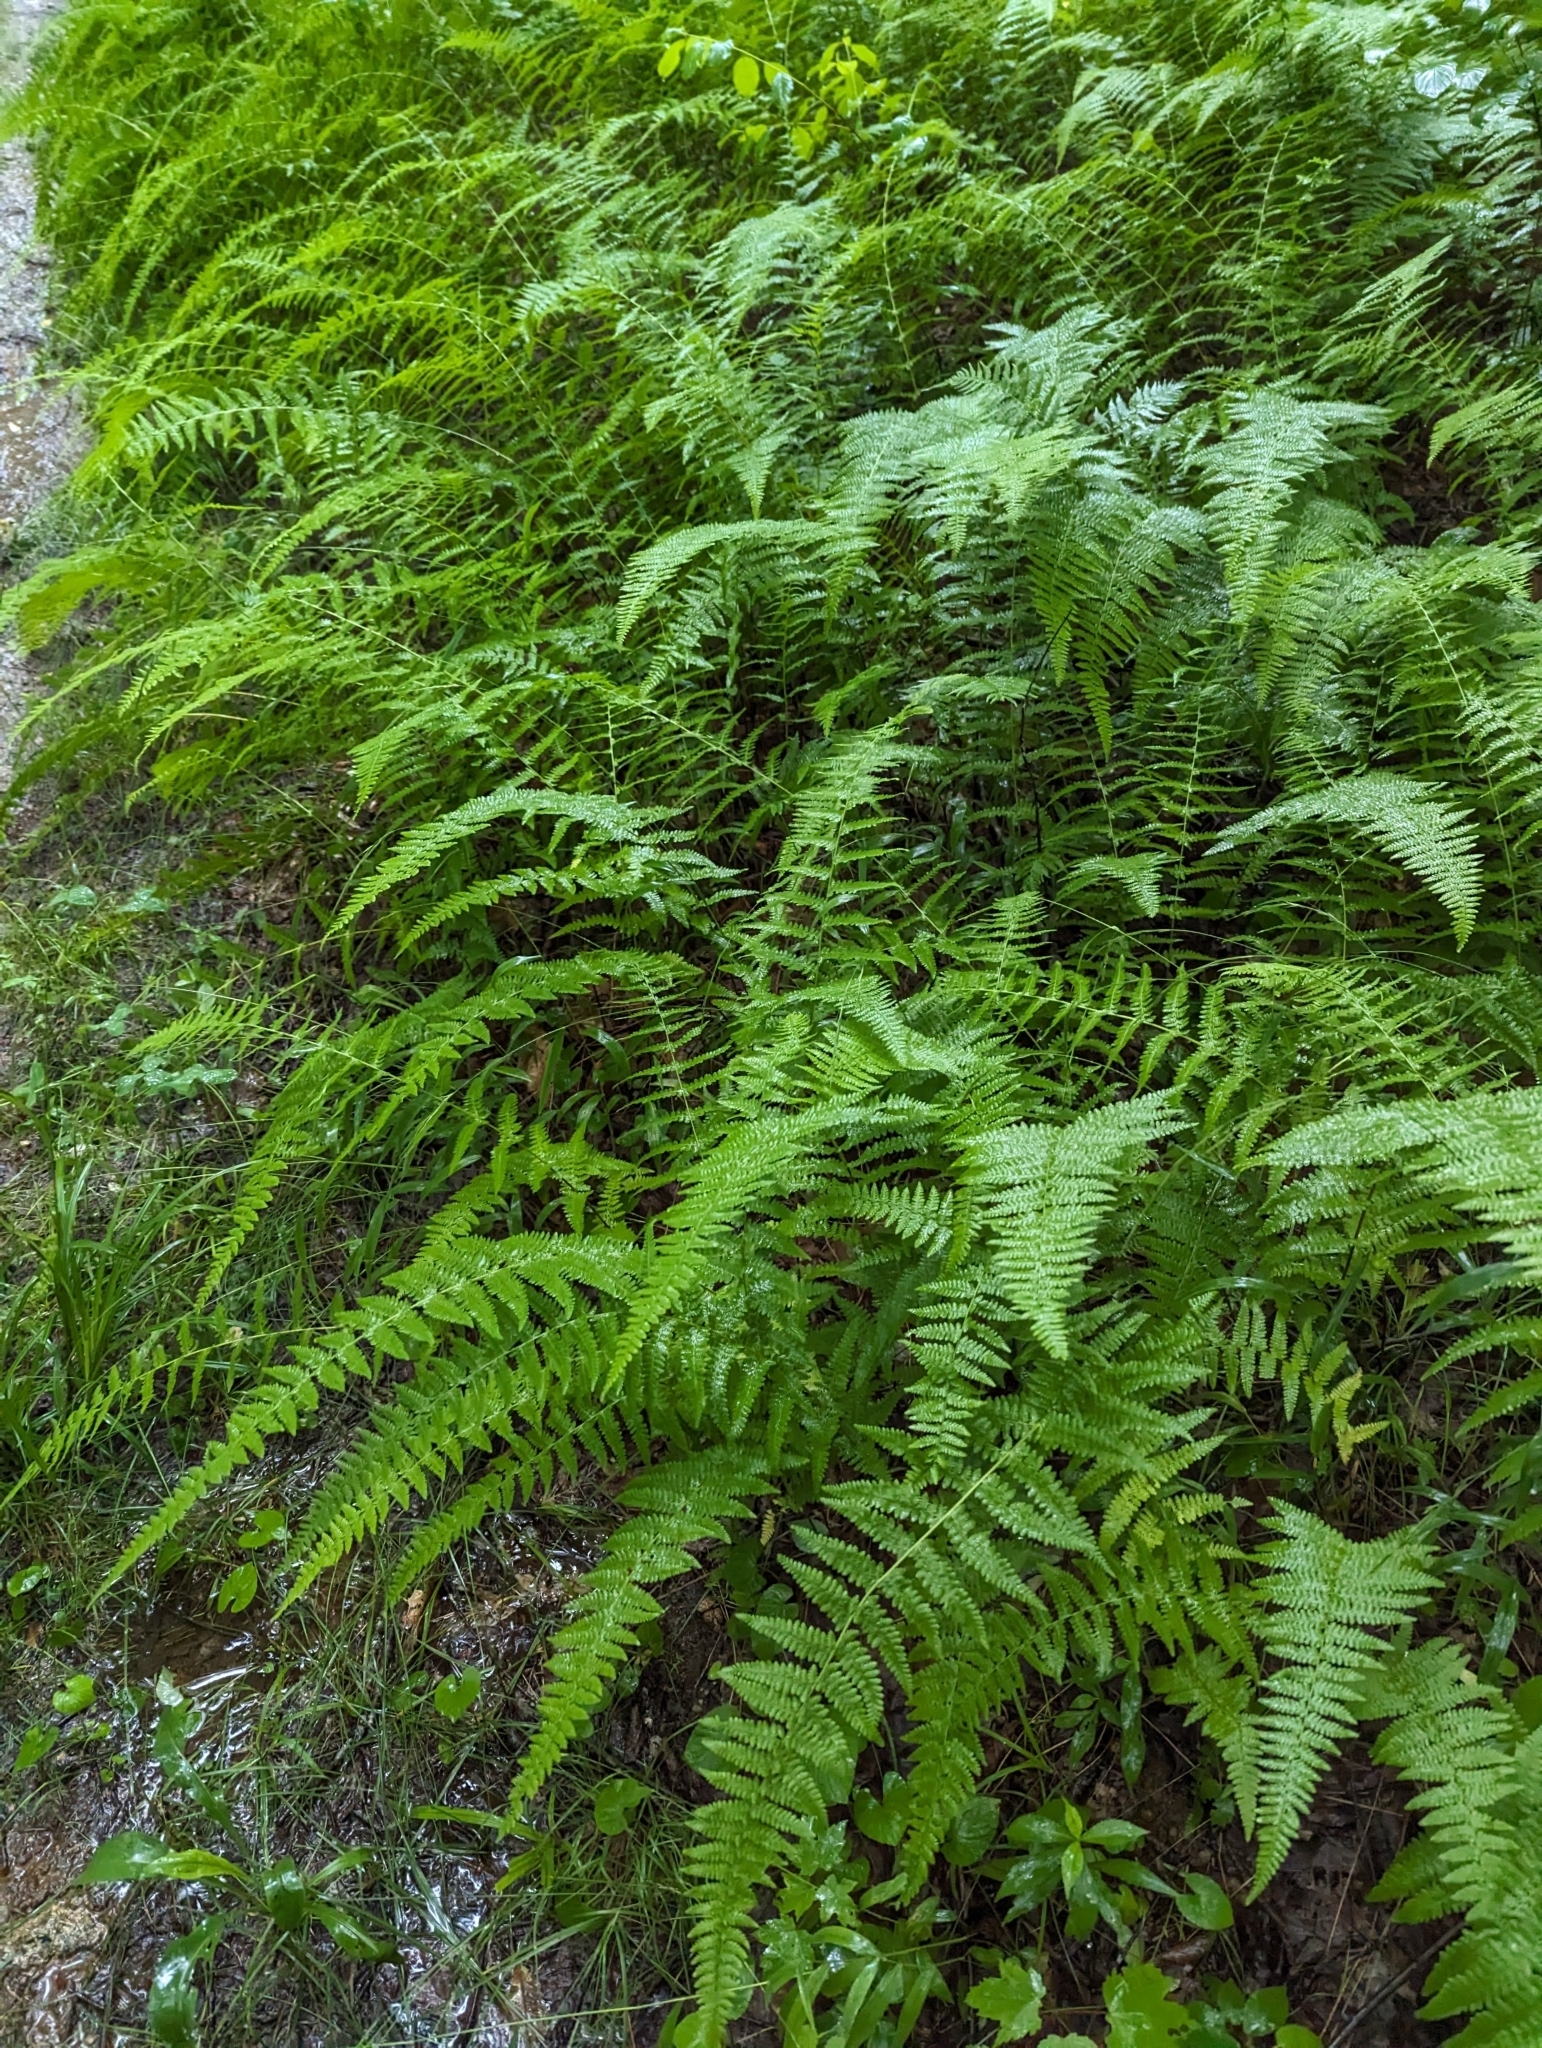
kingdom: Plantae
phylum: Tracheophyta
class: Polypodiopsida
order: Polypodiales
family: Dennstaedtiaceae
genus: Sitobolium
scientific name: Sitobolium punctilobum
